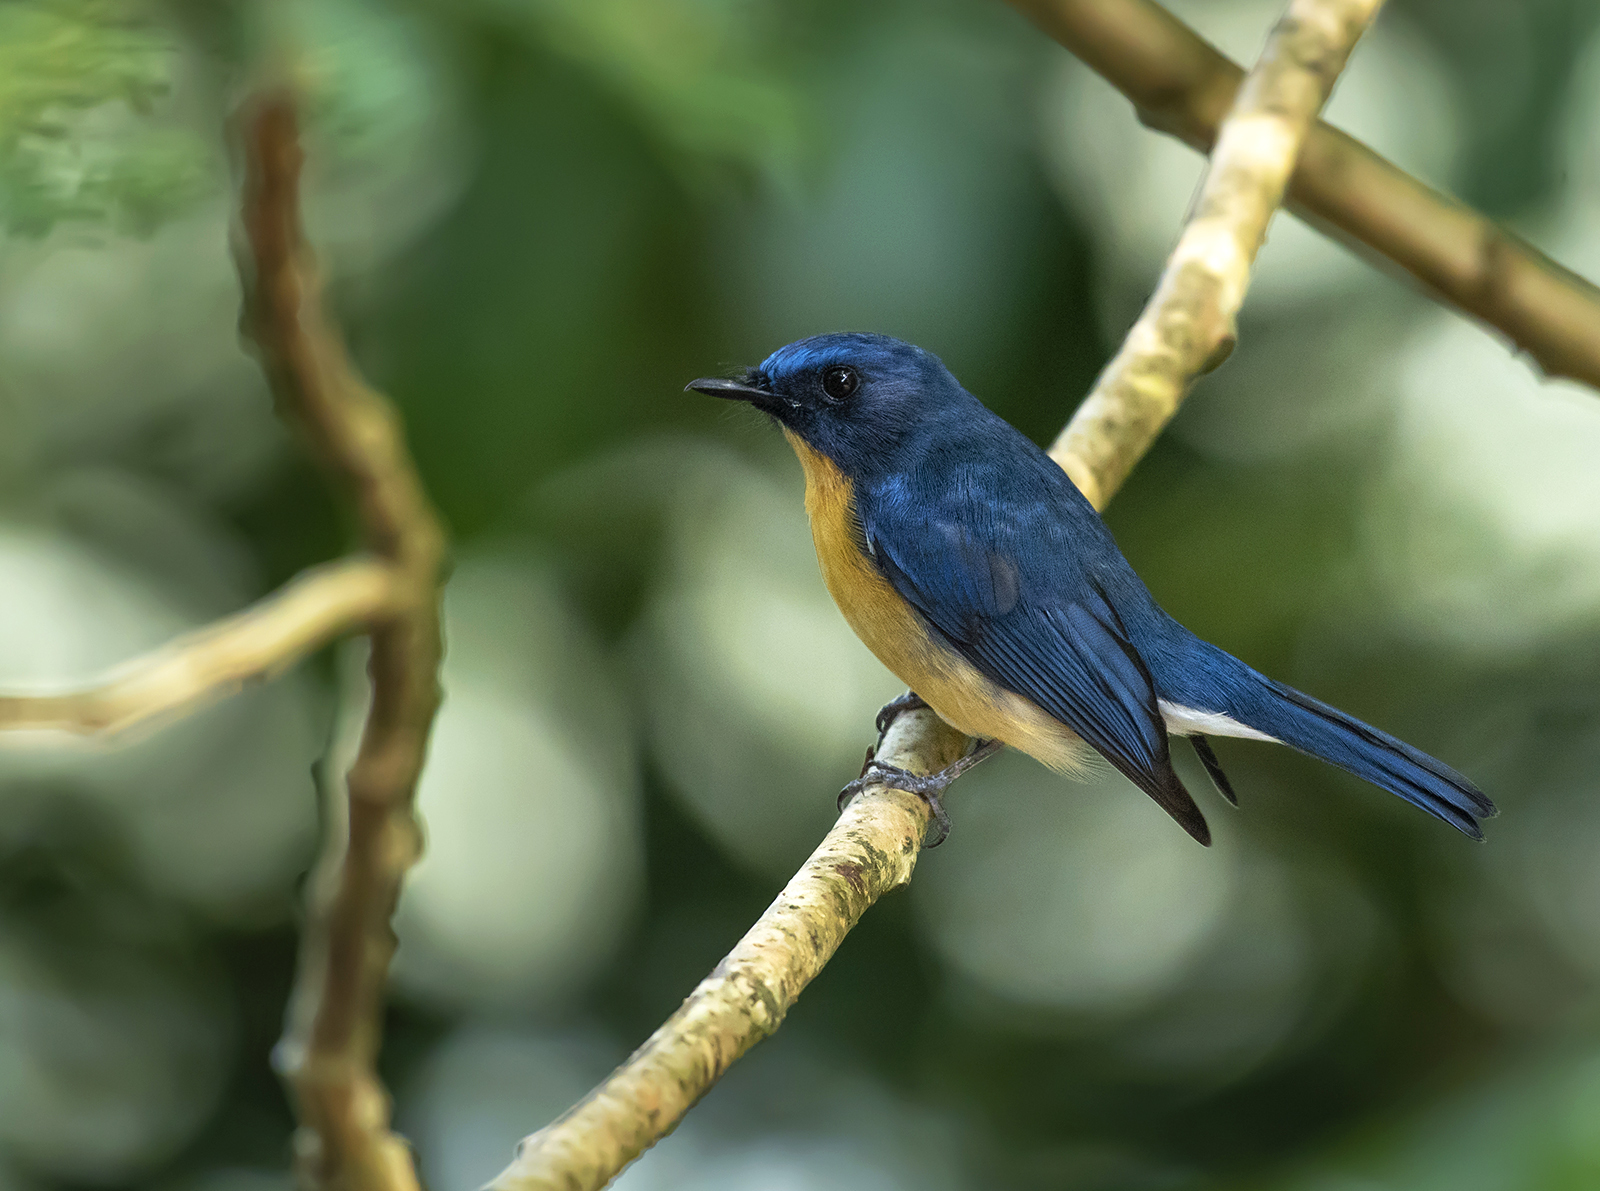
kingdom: Animalia
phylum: Chordata
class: Aves
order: Passeriformes
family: Muscicapidae
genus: Cyornis
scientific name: Cyornis tickelliae
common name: Tickell's blue flycatcher
